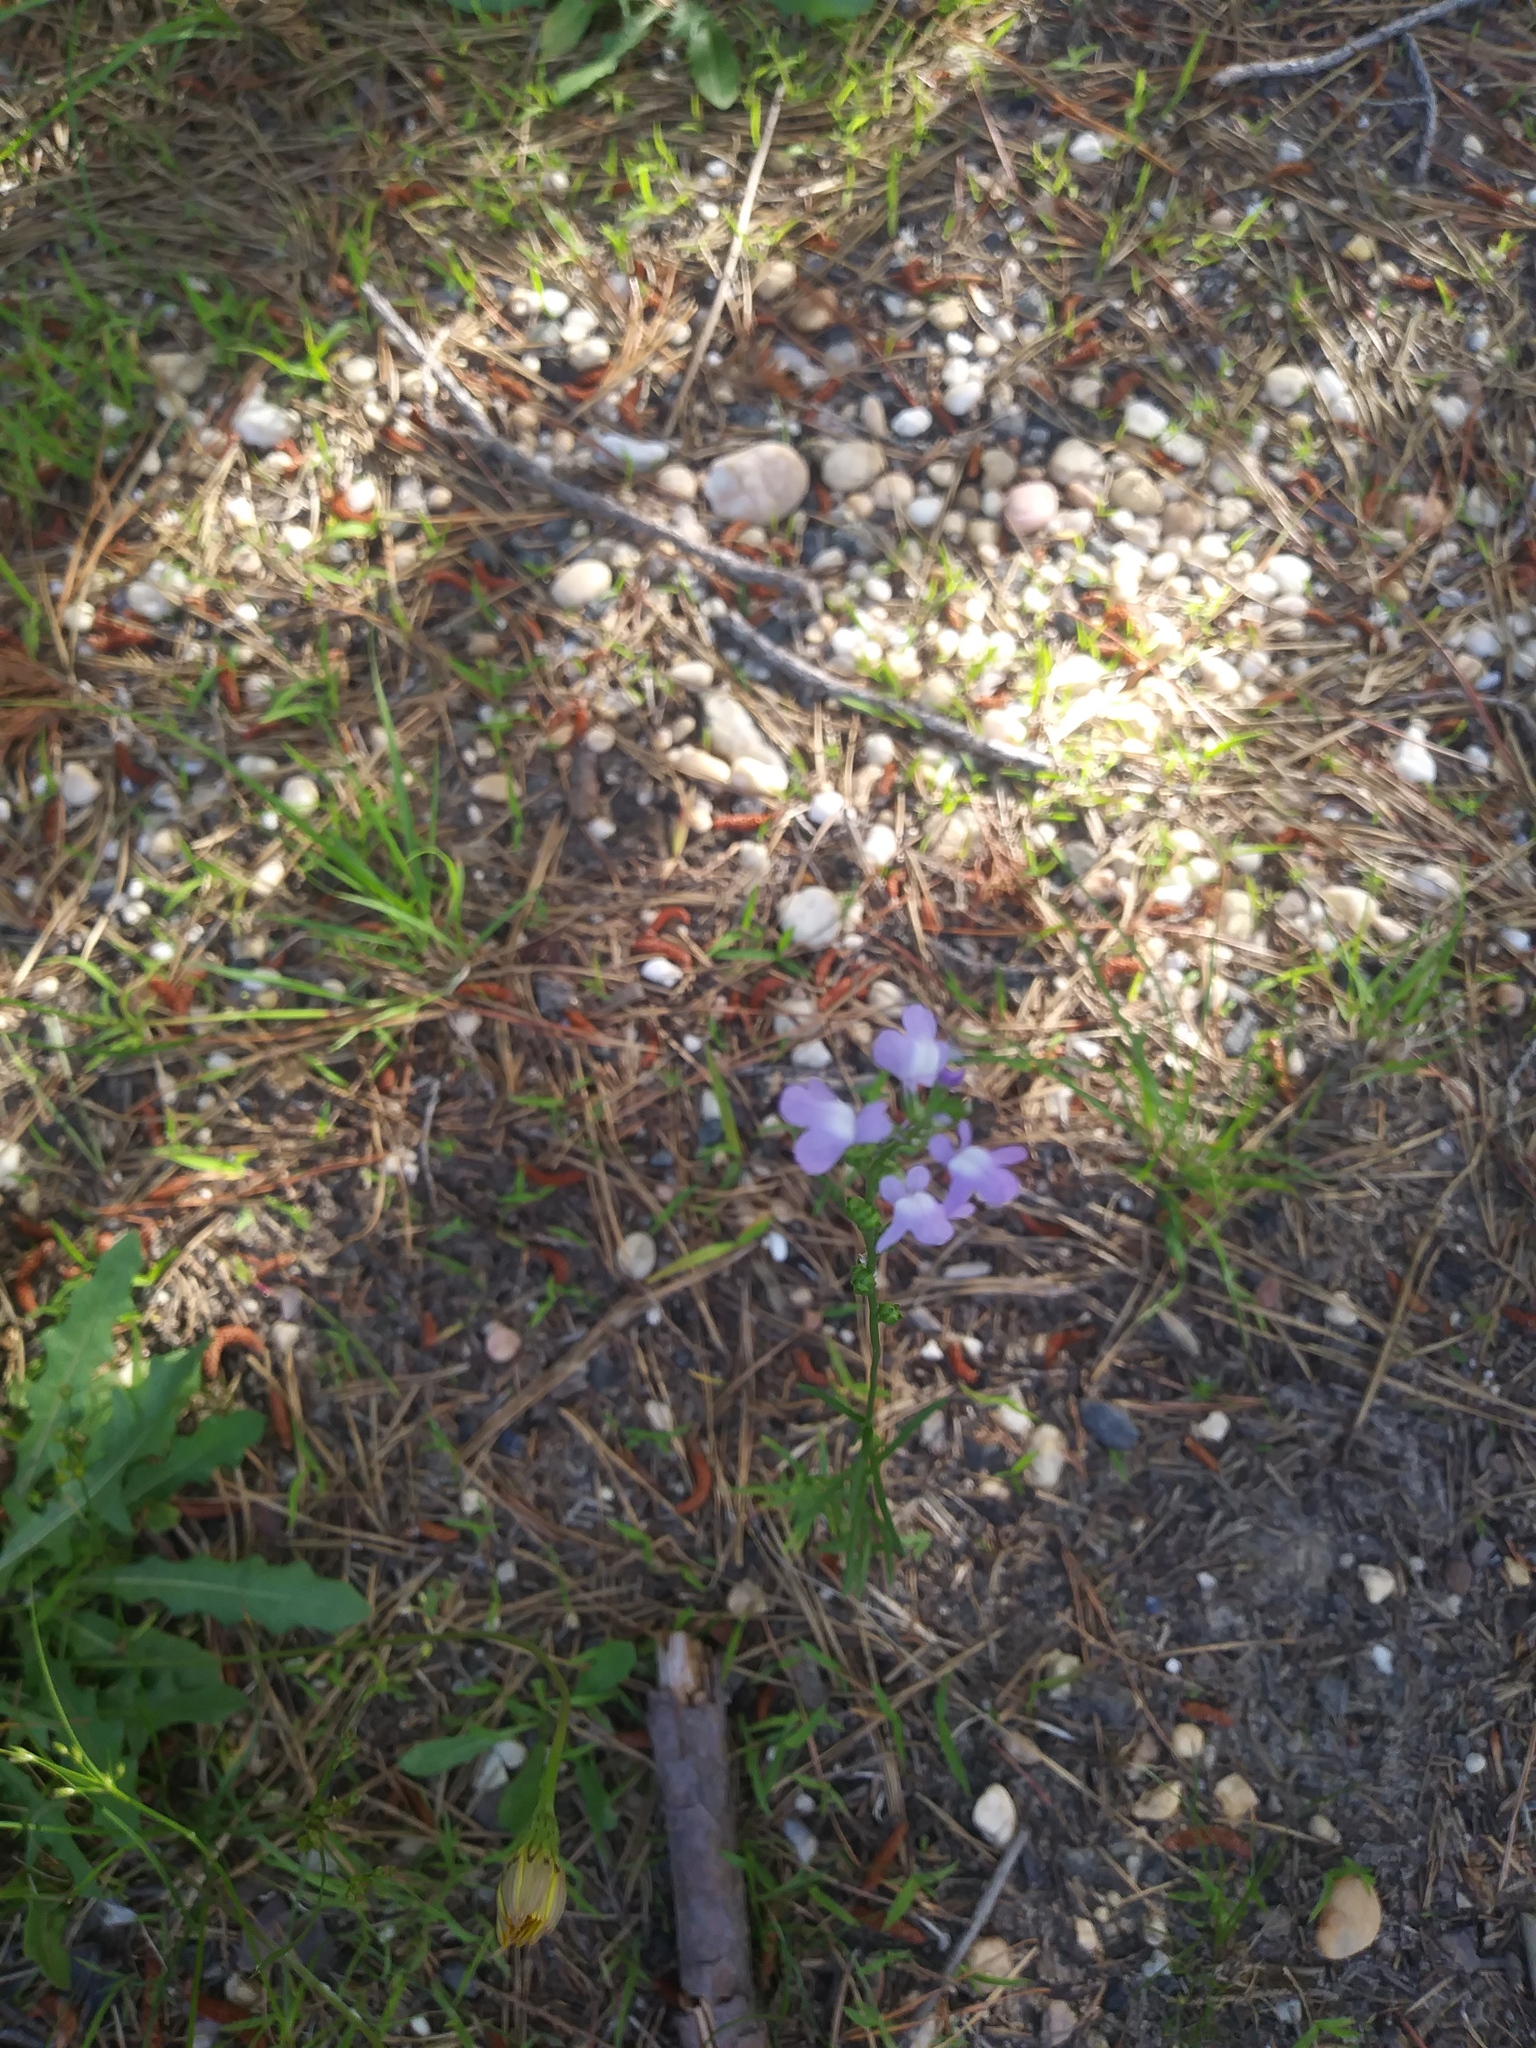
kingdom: Plantae
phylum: Tracheophyta
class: Magnoliopsida
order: Lamiales
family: Plantaginaceae
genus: Nuttallanthus
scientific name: Nuttallanthus canadensis
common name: Blue toadflax
